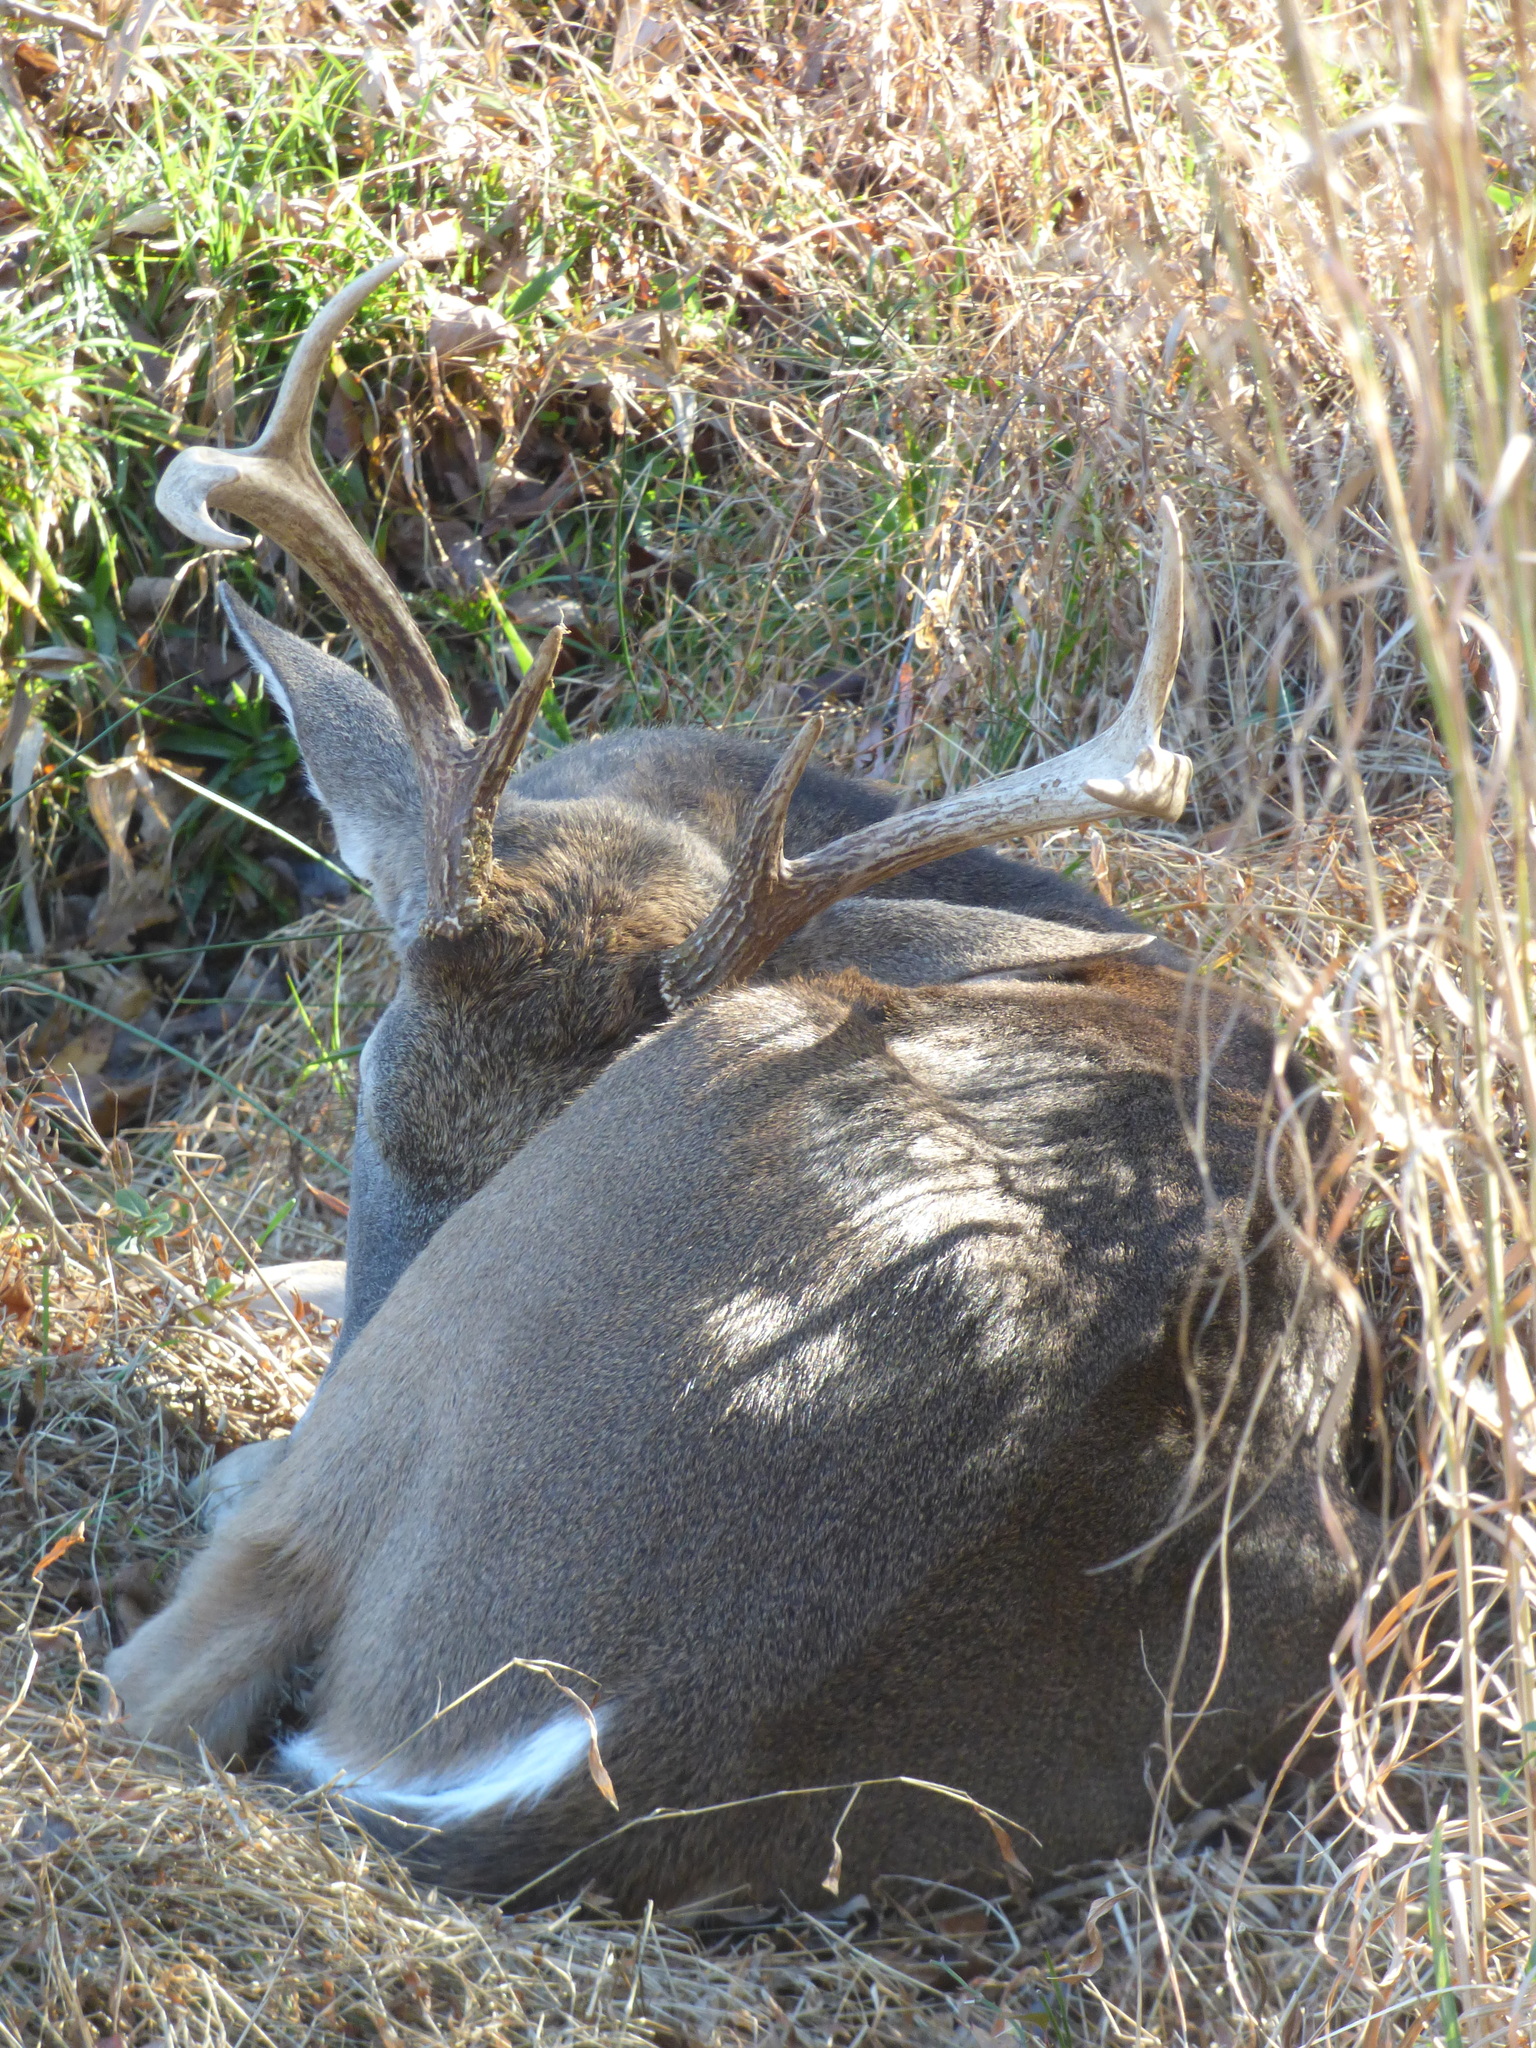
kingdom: Animalia
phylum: Chordata
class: Mammalia
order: Artiodactyla
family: Cervidae
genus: Odocoileus
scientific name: Odocoileus virginianus
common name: White-tailed deer
